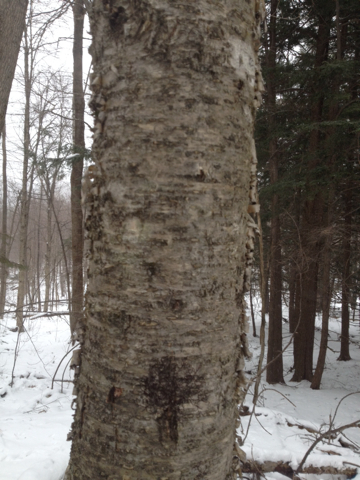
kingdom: Plantae
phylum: Tracheophyta
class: Magnoliopsida
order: Fagales
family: Betulaceae
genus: Betula
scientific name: Betula alleghaniensis
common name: Yellow birch
